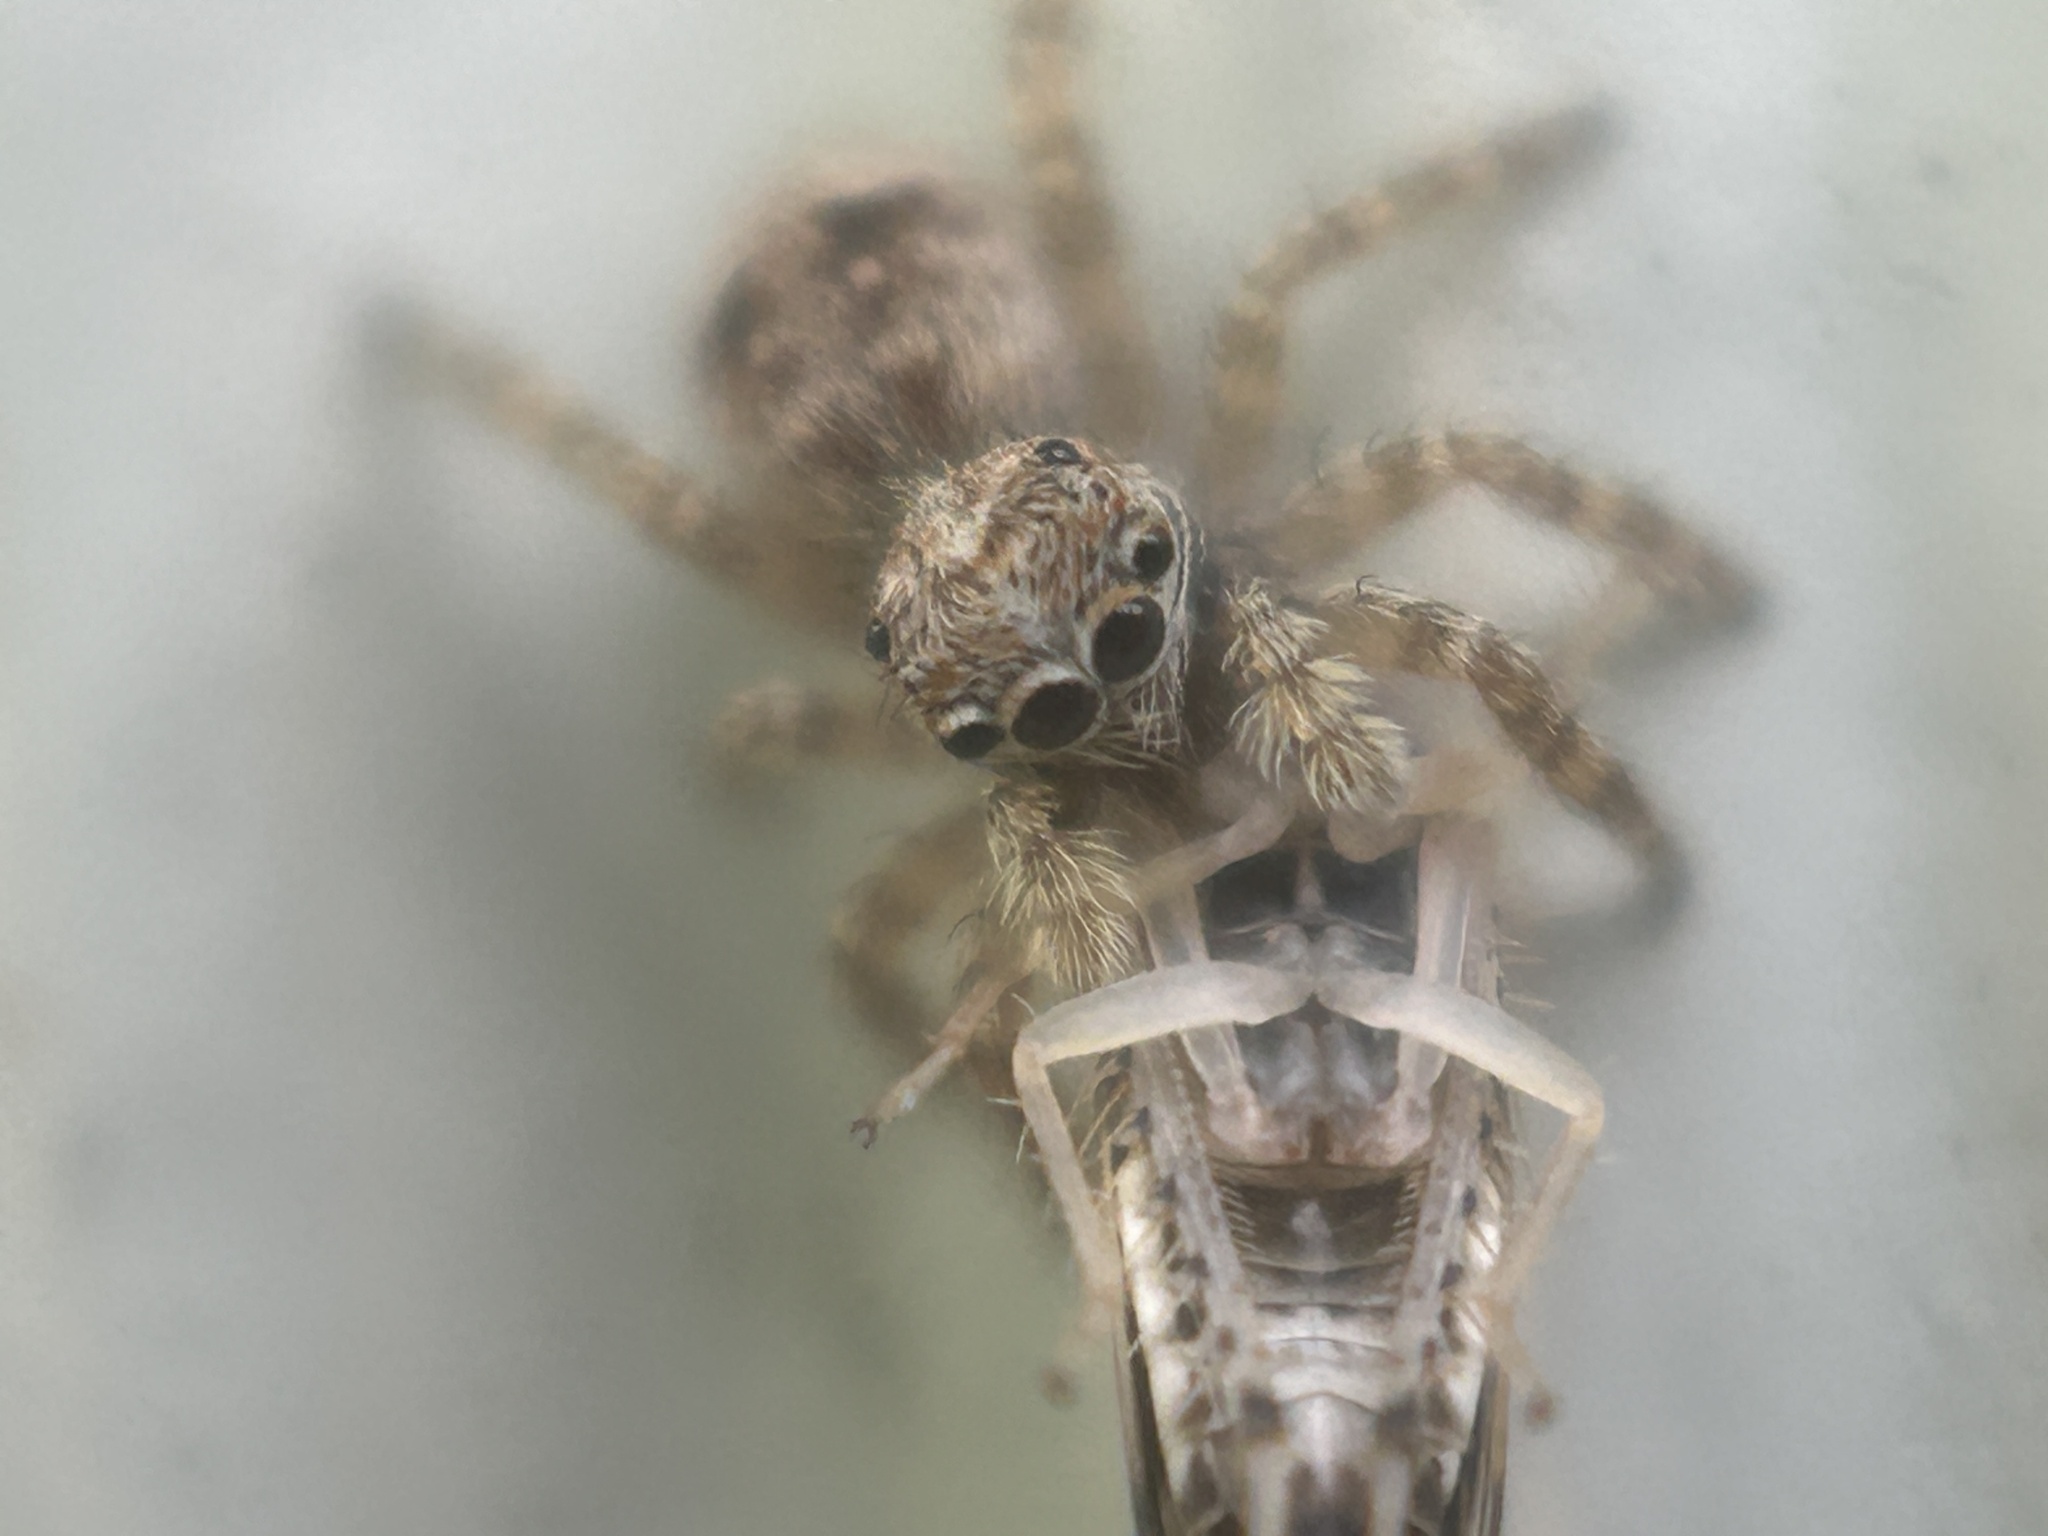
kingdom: Animalia
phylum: Arthropoda
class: Arachnida
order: Araneae
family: Salticidae
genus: Attulus
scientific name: Attulus fasciger
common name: Asiatic wall jumping spider
